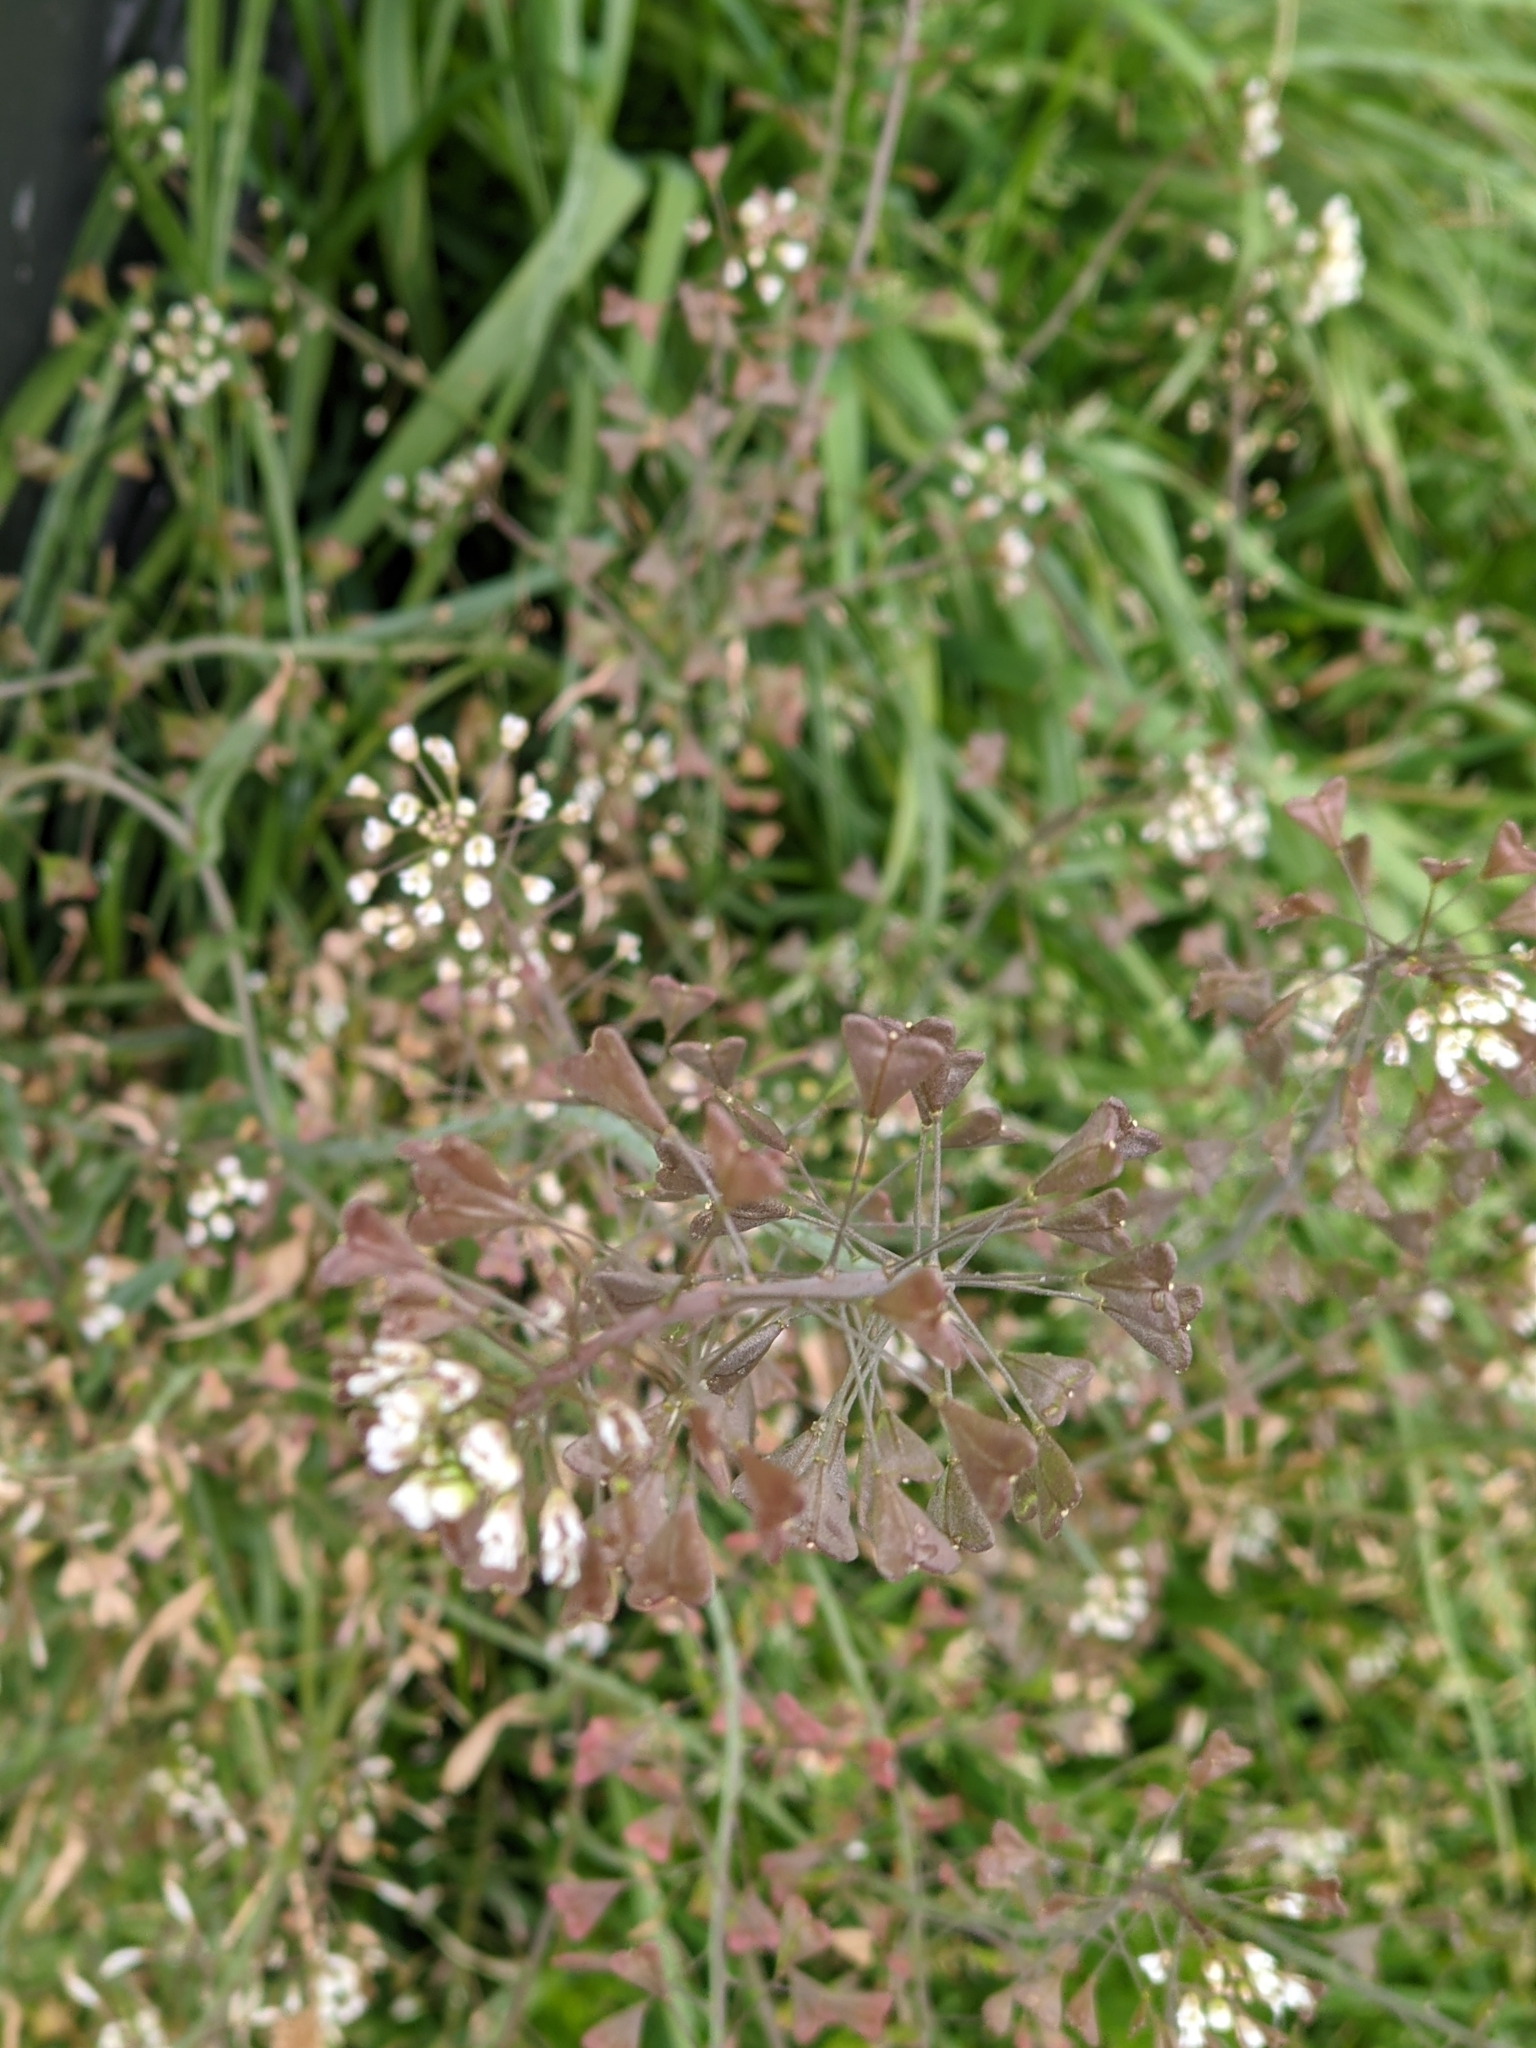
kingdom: Plantae
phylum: Tracheophyta
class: Magnoliopsida
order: Brassicales
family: Brassicaceae
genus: Capsella
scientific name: Capsella bursa-pastoris
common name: Shepherd's purse
